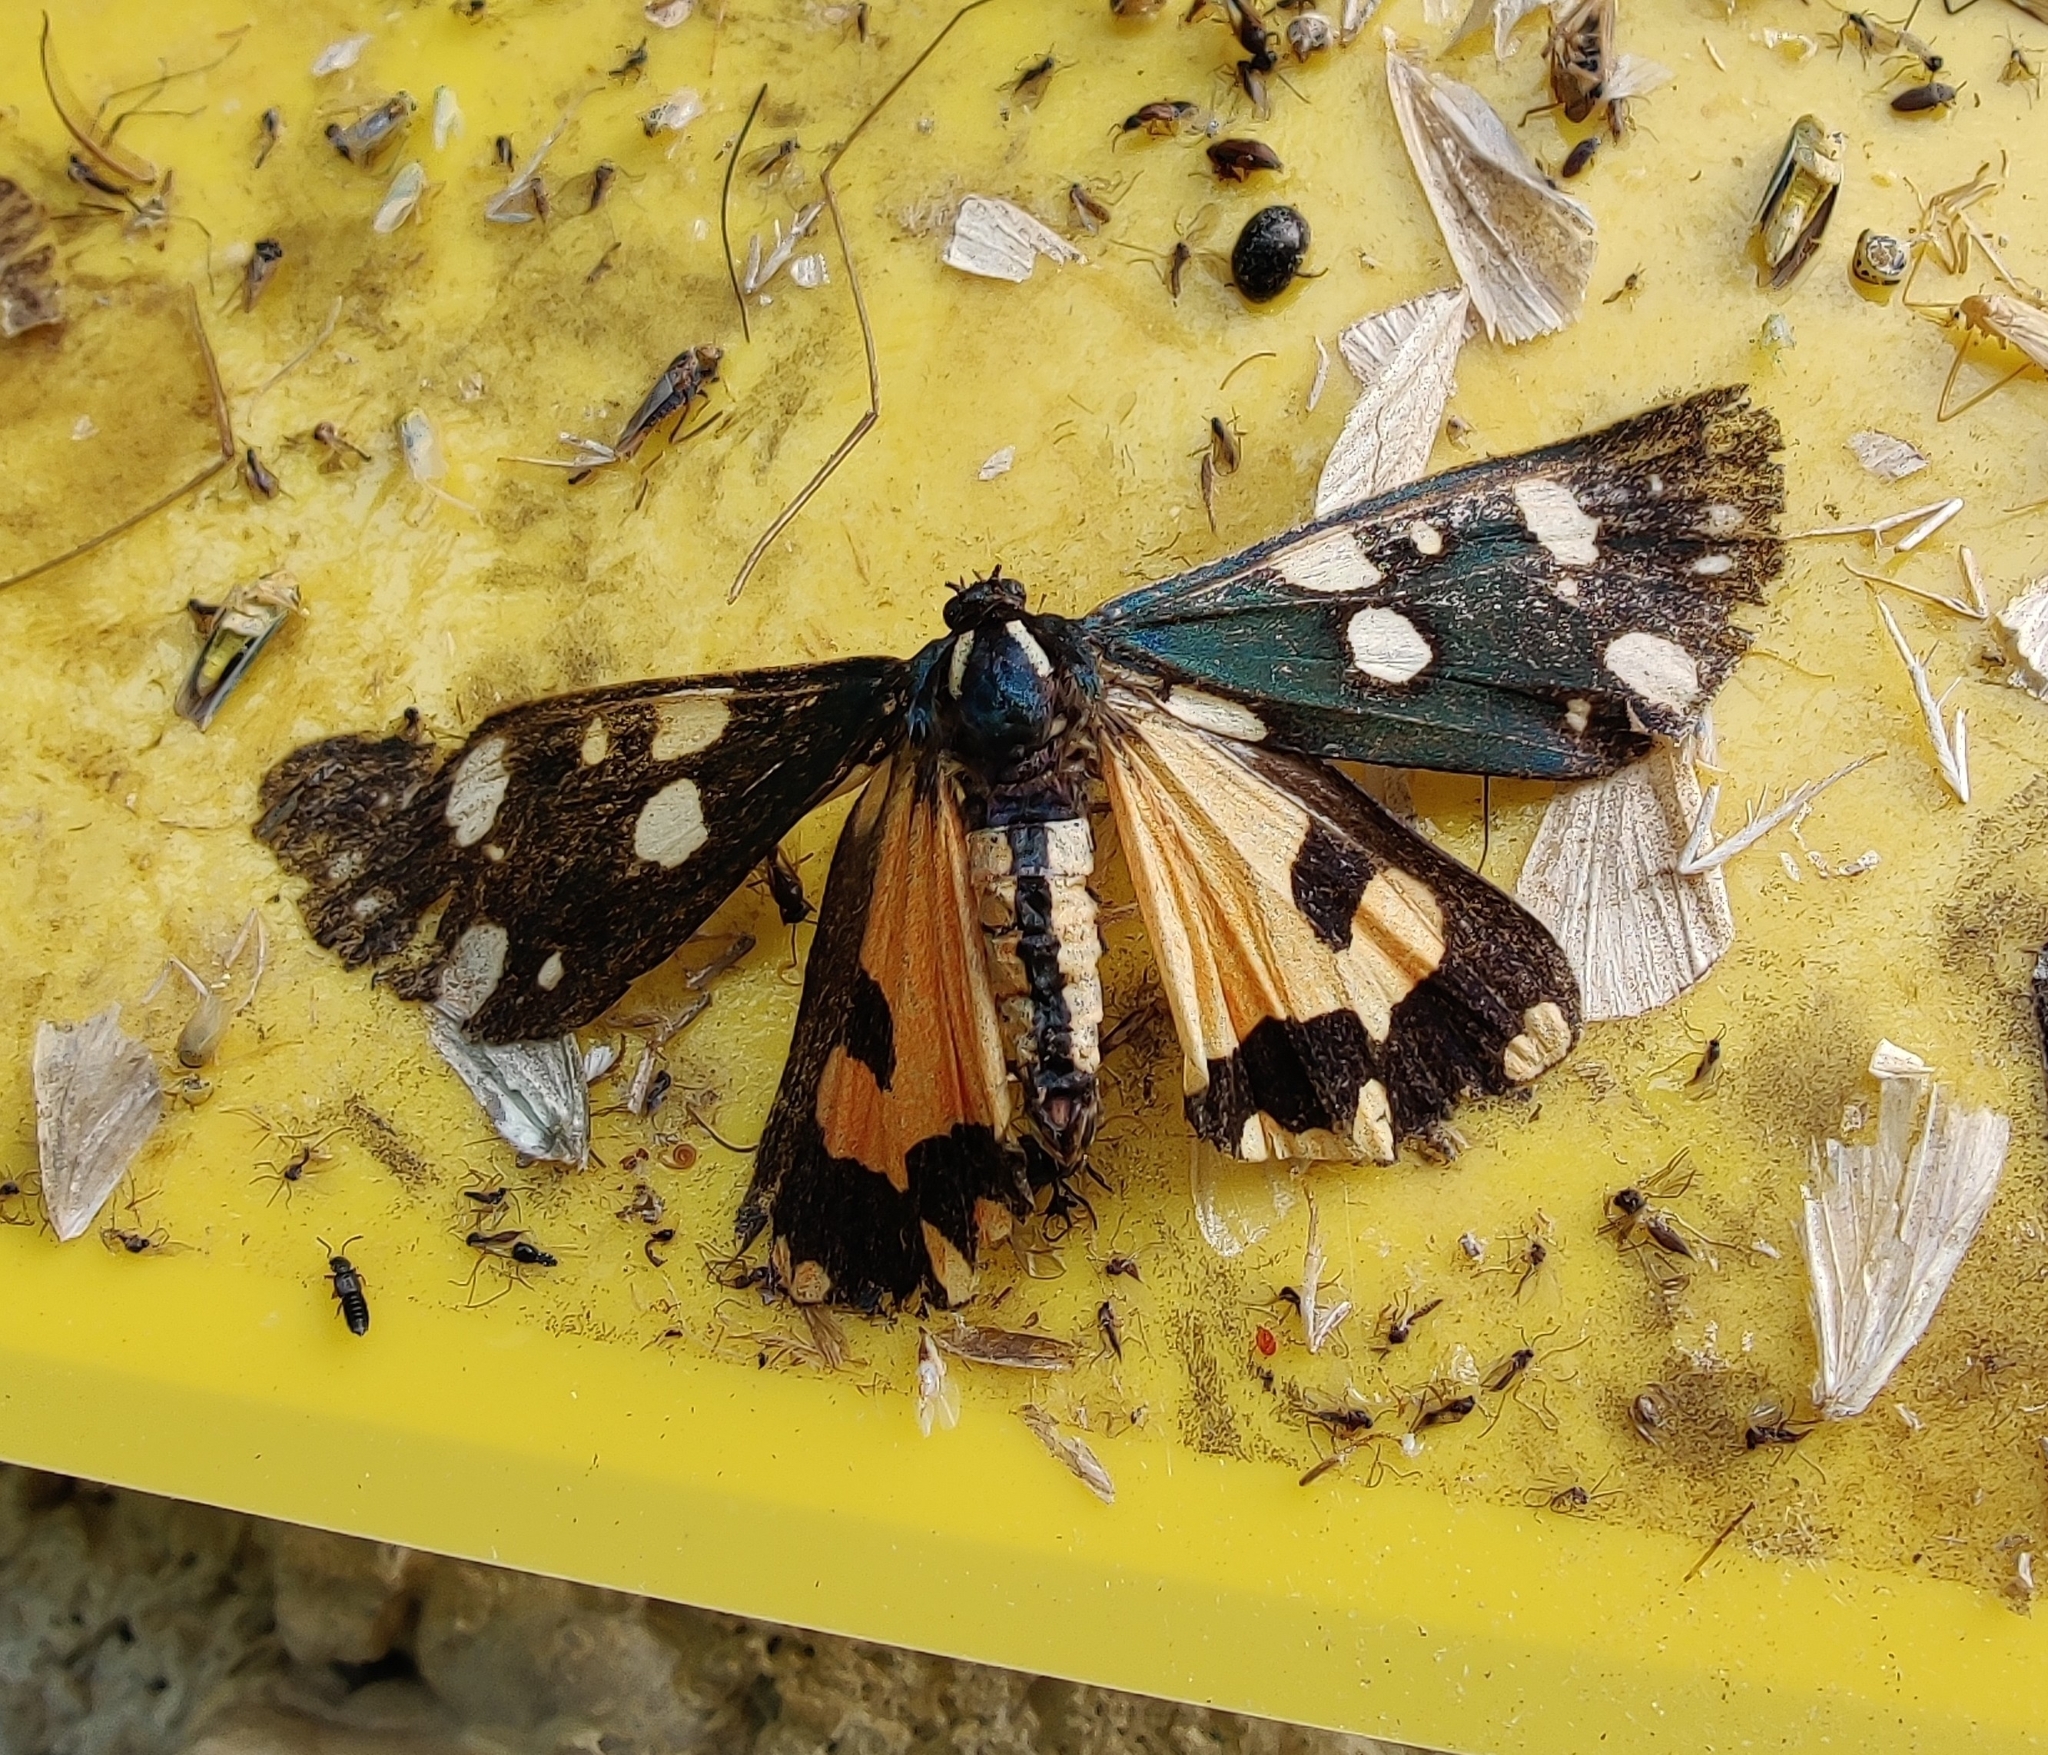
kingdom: Animalia
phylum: Arthropoda
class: Insecta
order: Lepidoptera
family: Erebidae
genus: Callimorpha
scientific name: Callimorpha dominula
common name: Scarlet tiger
